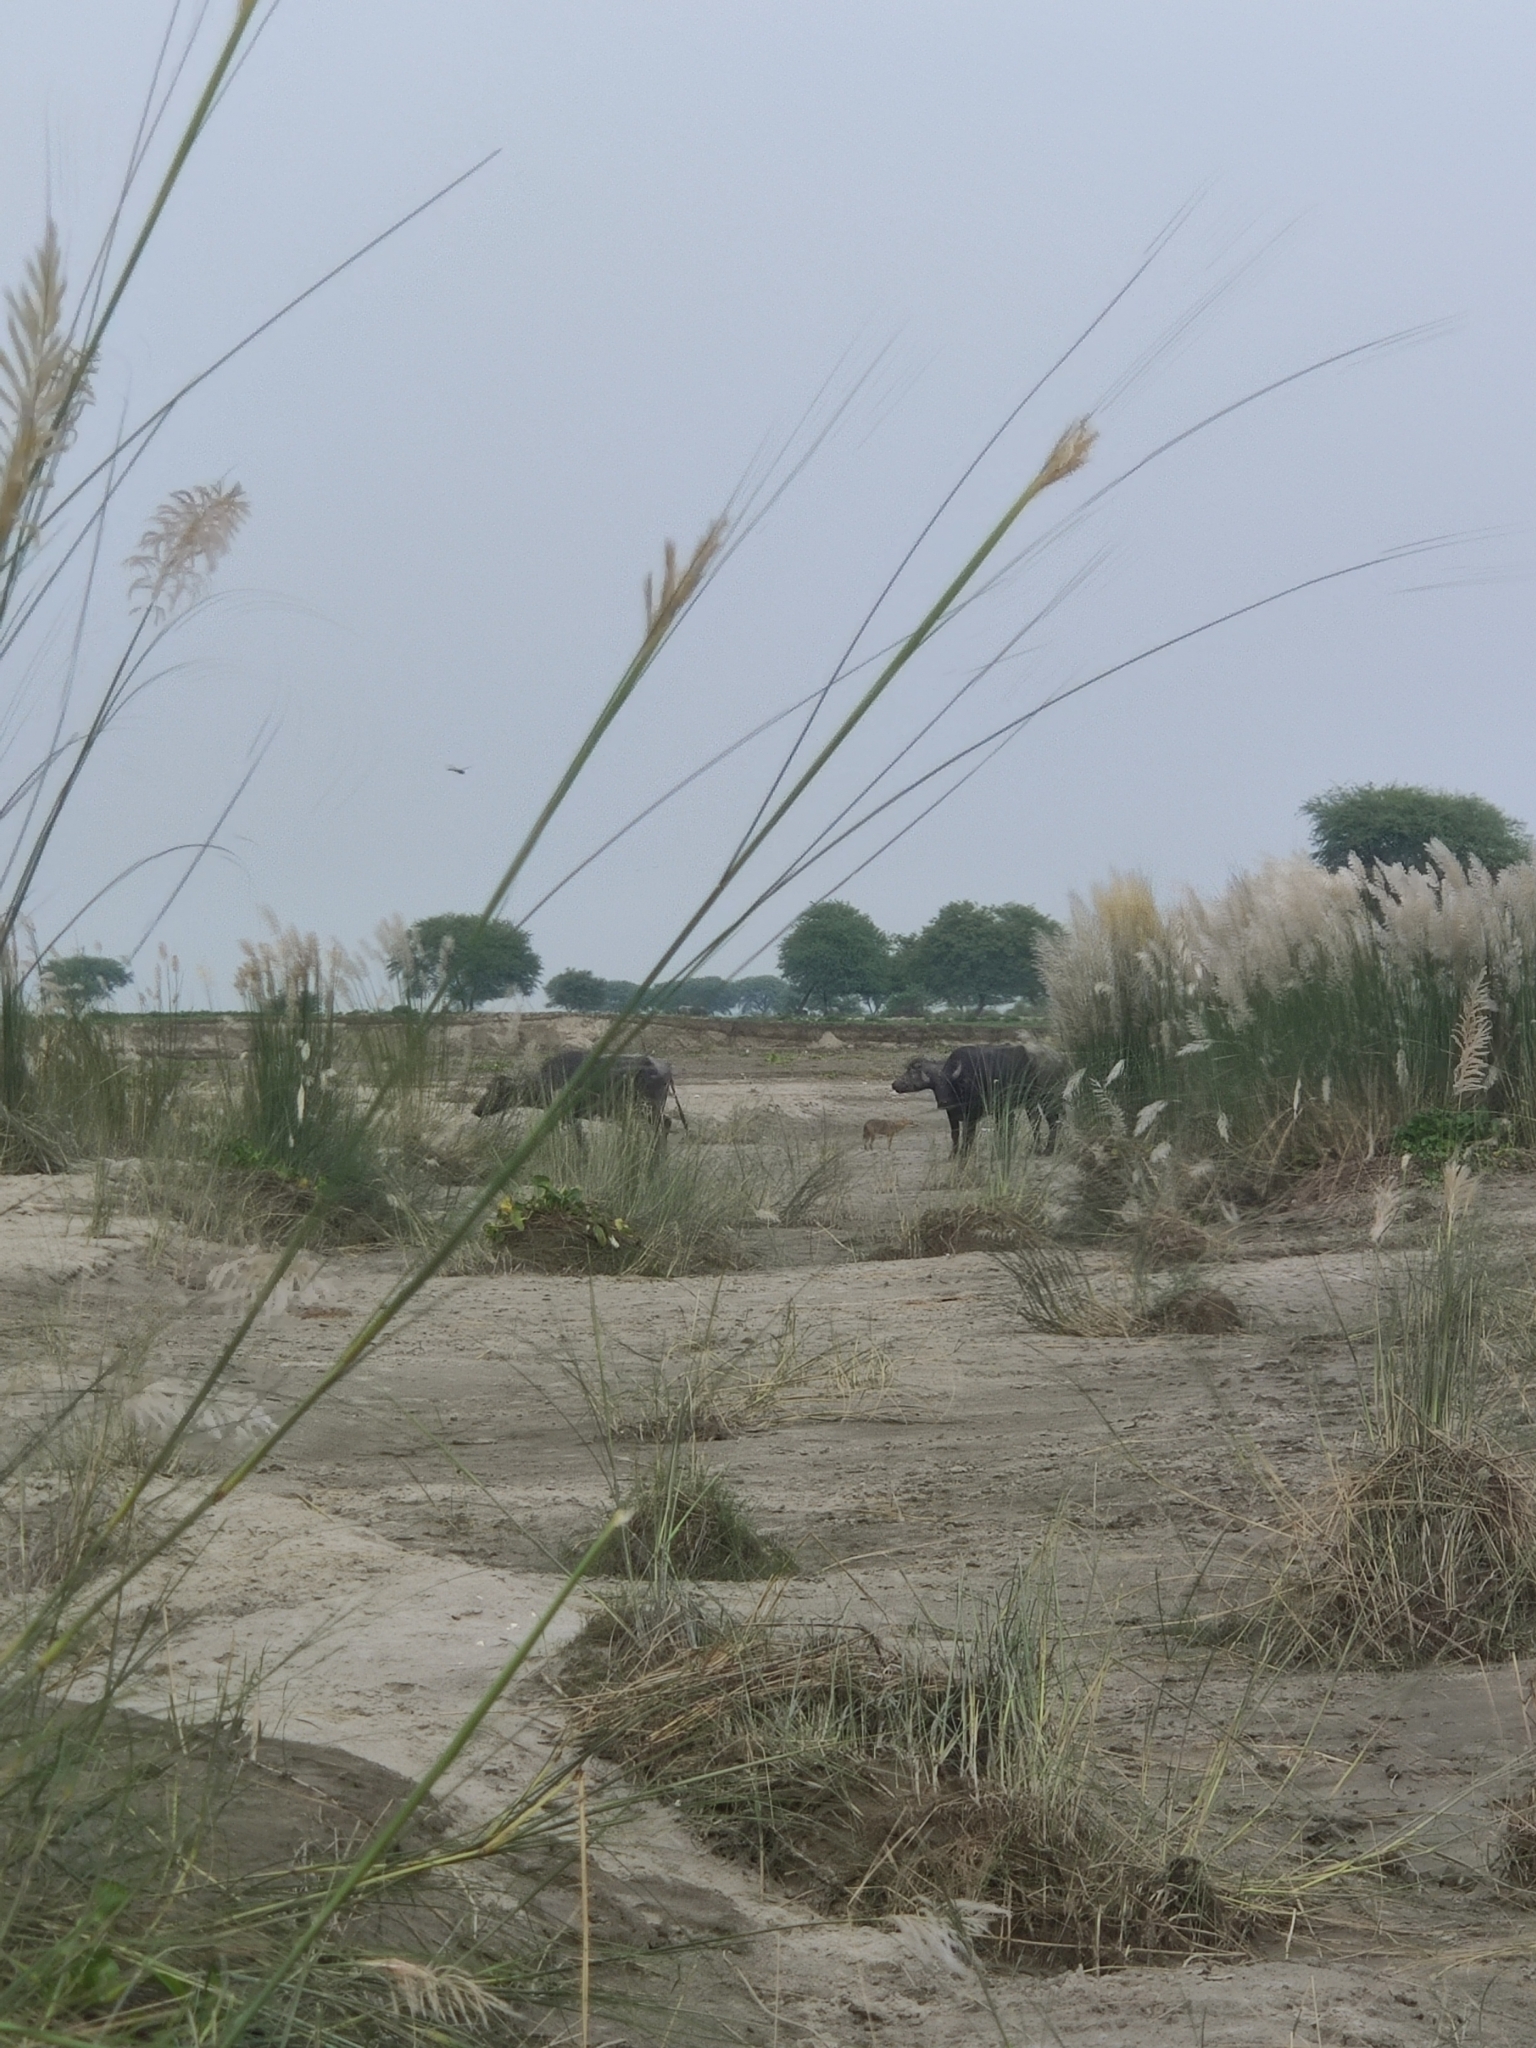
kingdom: Animalia
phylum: Chordata
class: Mammalia
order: Carnivora
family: Canidae
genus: Canis
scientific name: Canis aureus
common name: Golden jackal
